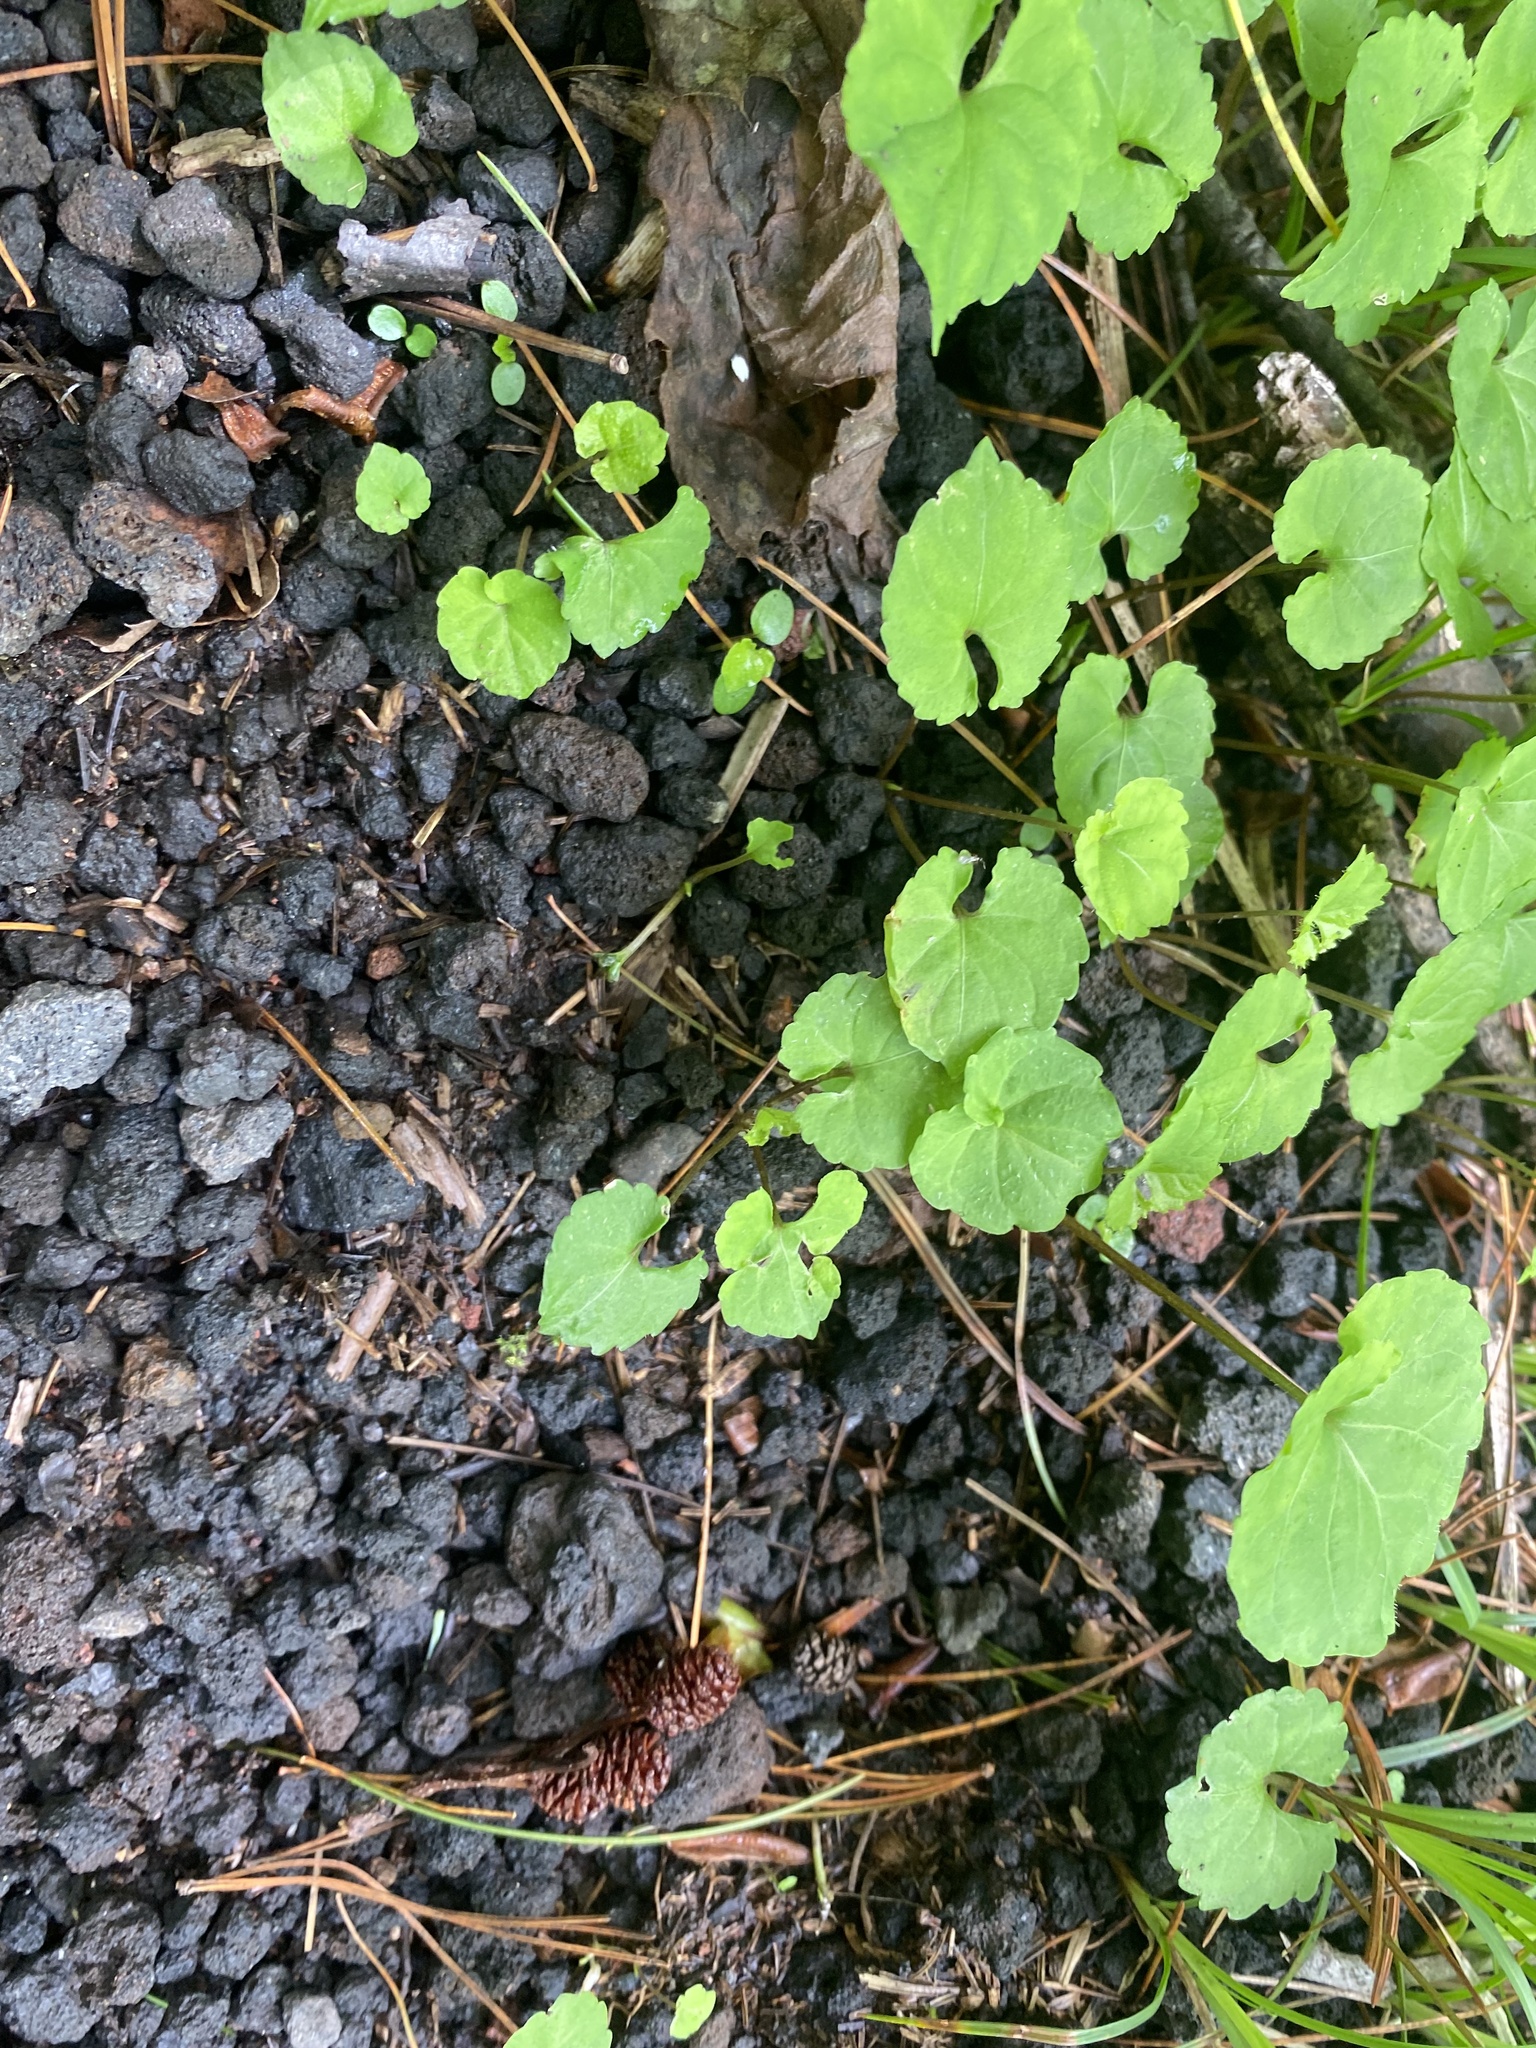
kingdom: Plantae
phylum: Tracheophyta
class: Magnoliopsida
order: Malpighiales
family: Violaceae
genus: Viola
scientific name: Viola selkirkii
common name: Selkirk's violet
